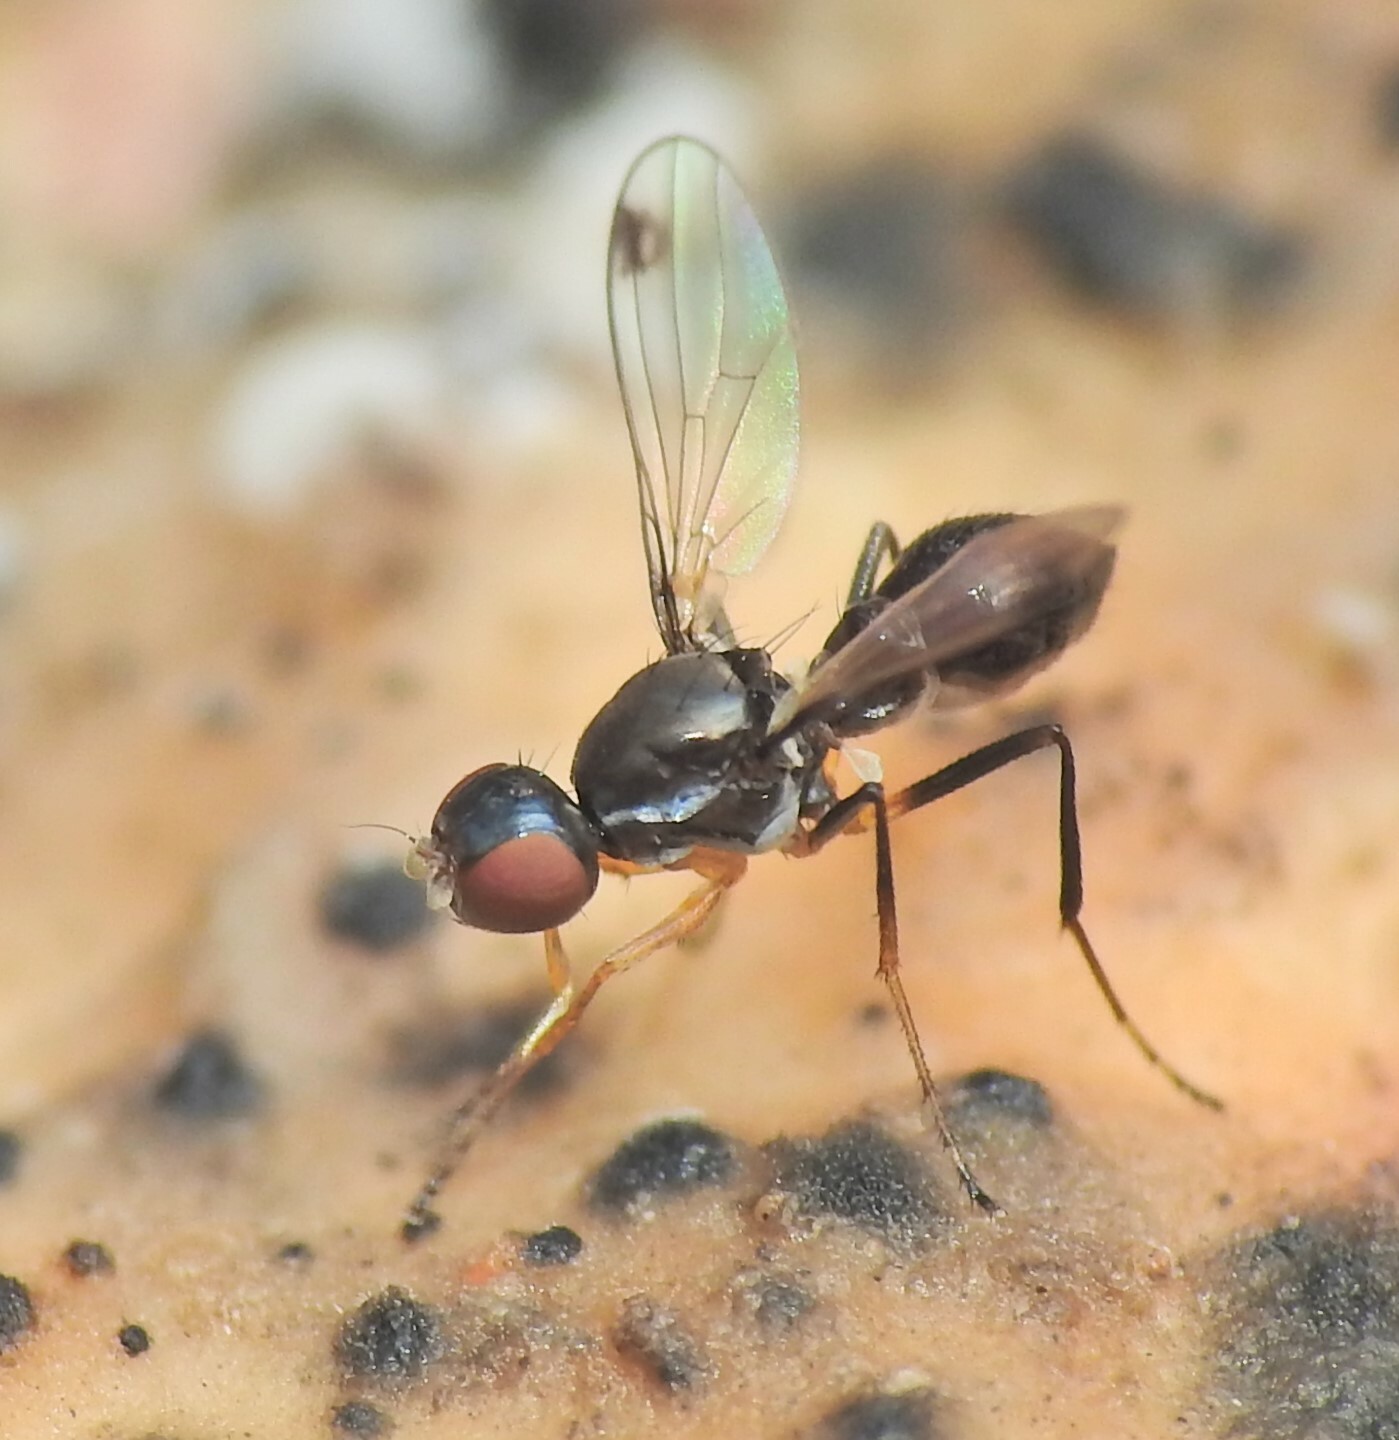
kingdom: Animalia
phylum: Arthropoda
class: Insecta
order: Diptera
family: Sepsidae
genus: Parapalaeosepsis
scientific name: Parapalaeosepsis plebeia
